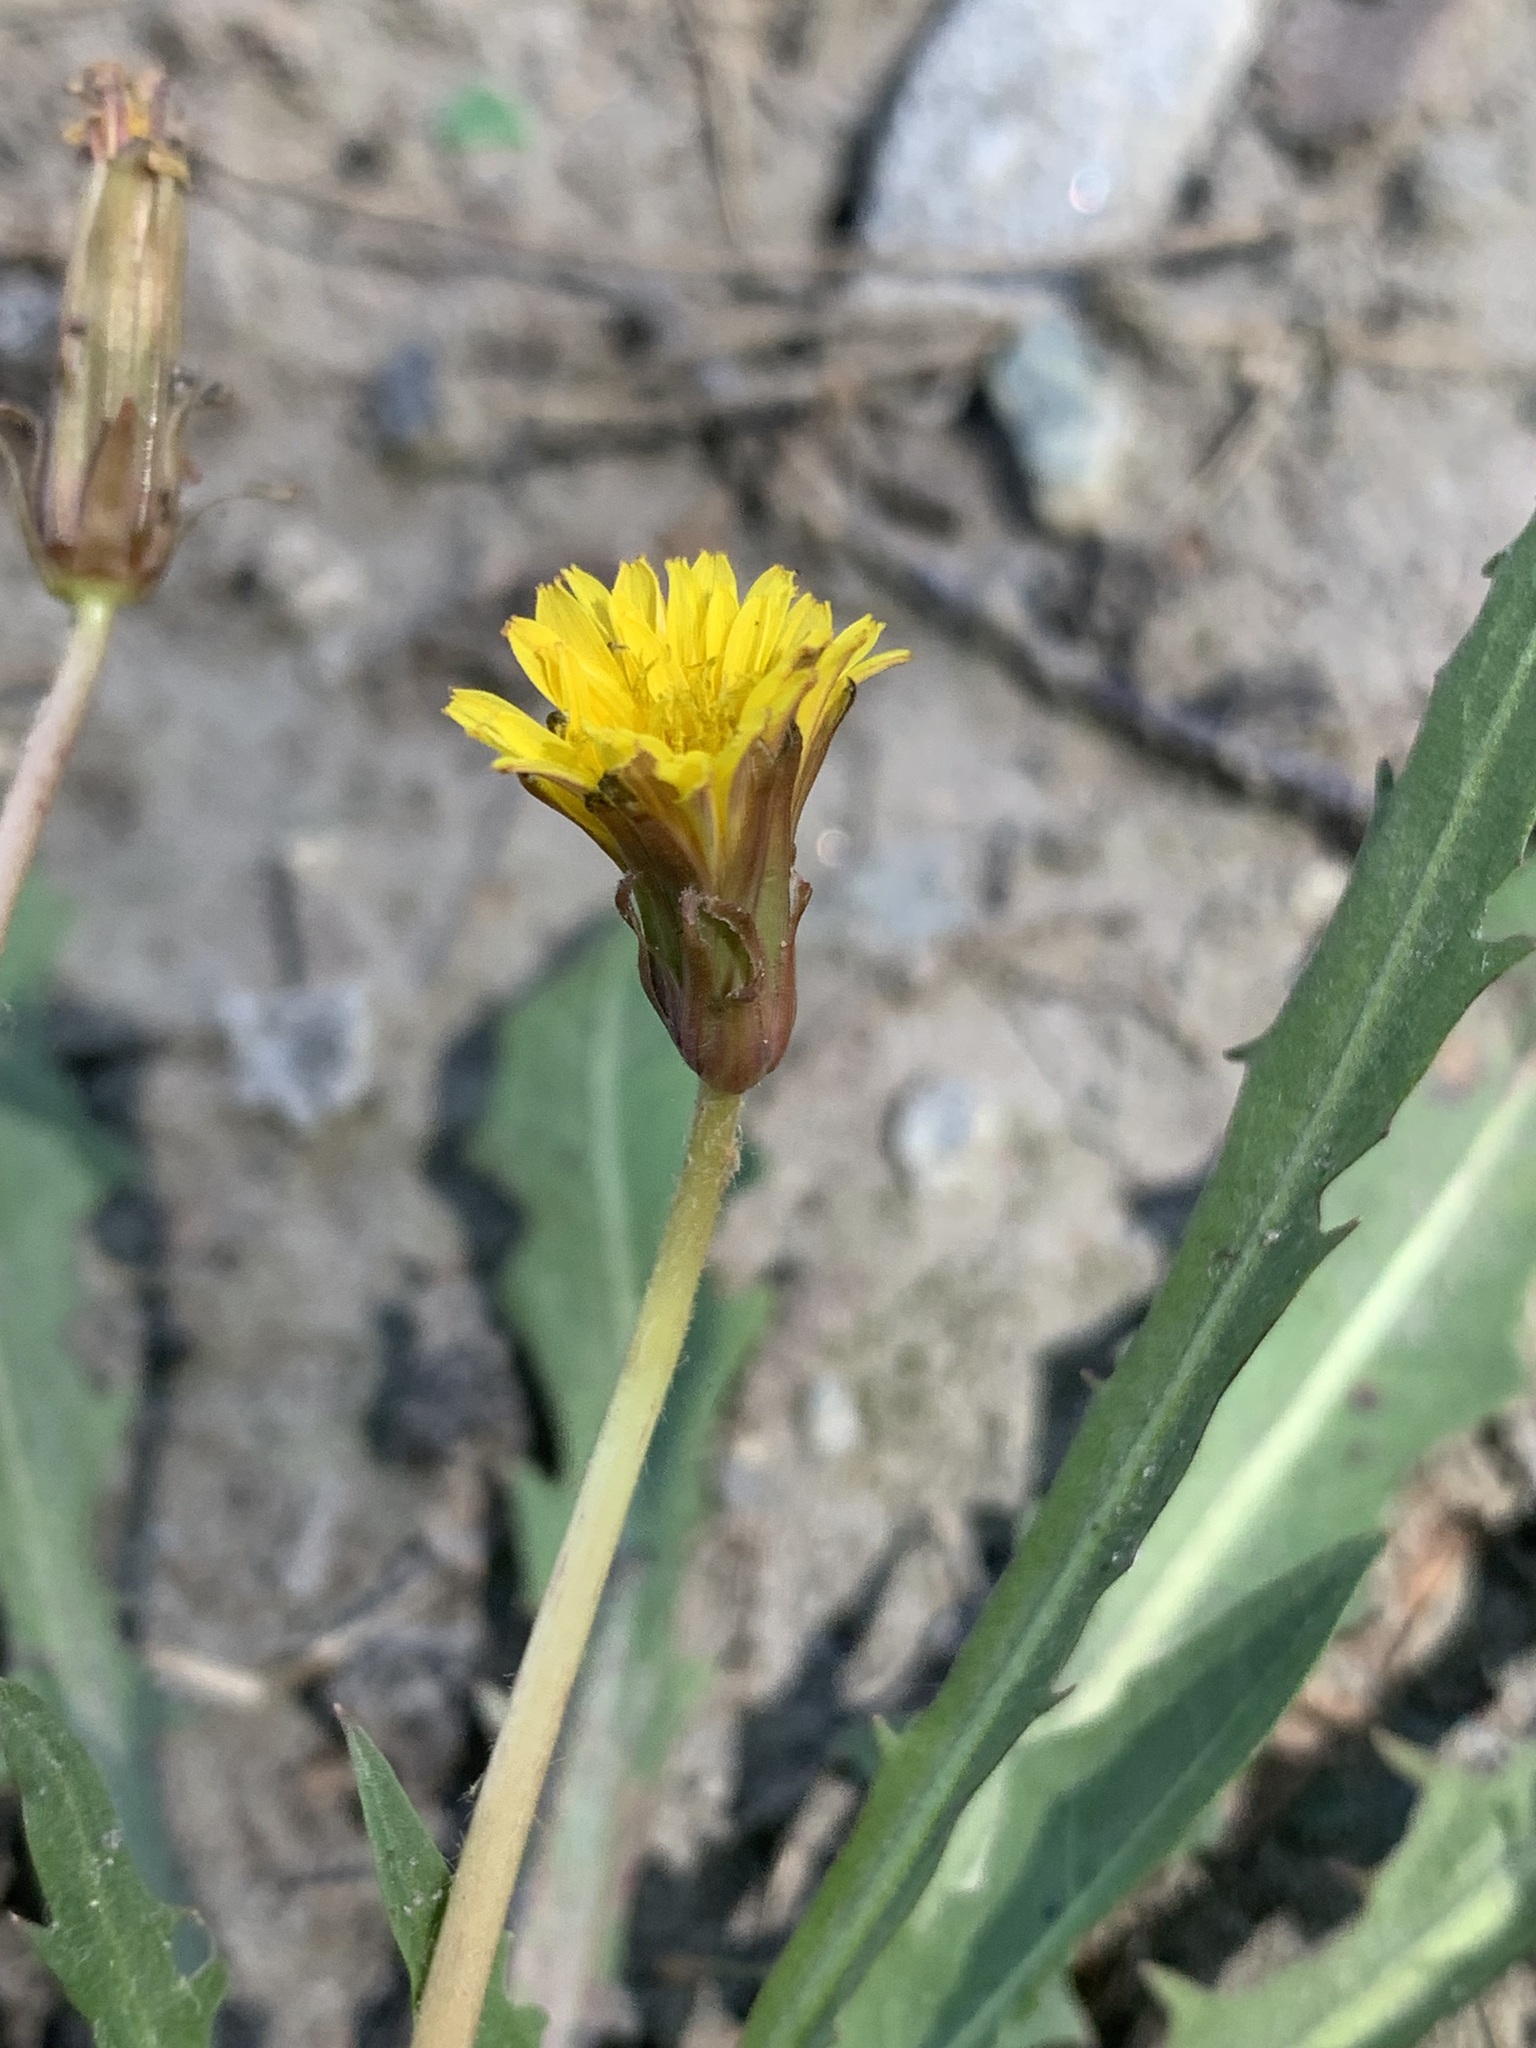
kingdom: Plantae
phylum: Tracheophyta
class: Magnoliopsida
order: Asterales
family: Asteraceae
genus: Taraxacum
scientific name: Taraxacum bessarabicum
